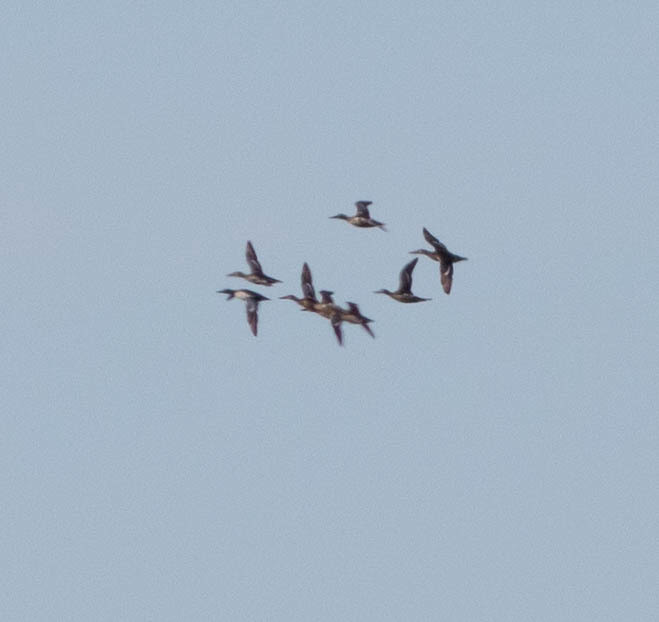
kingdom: Animalia
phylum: Chordata
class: Aves
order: Anseriformes
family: Anatidae
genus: Spatula
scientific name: Spatula clypeata
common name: Northern shoveler
